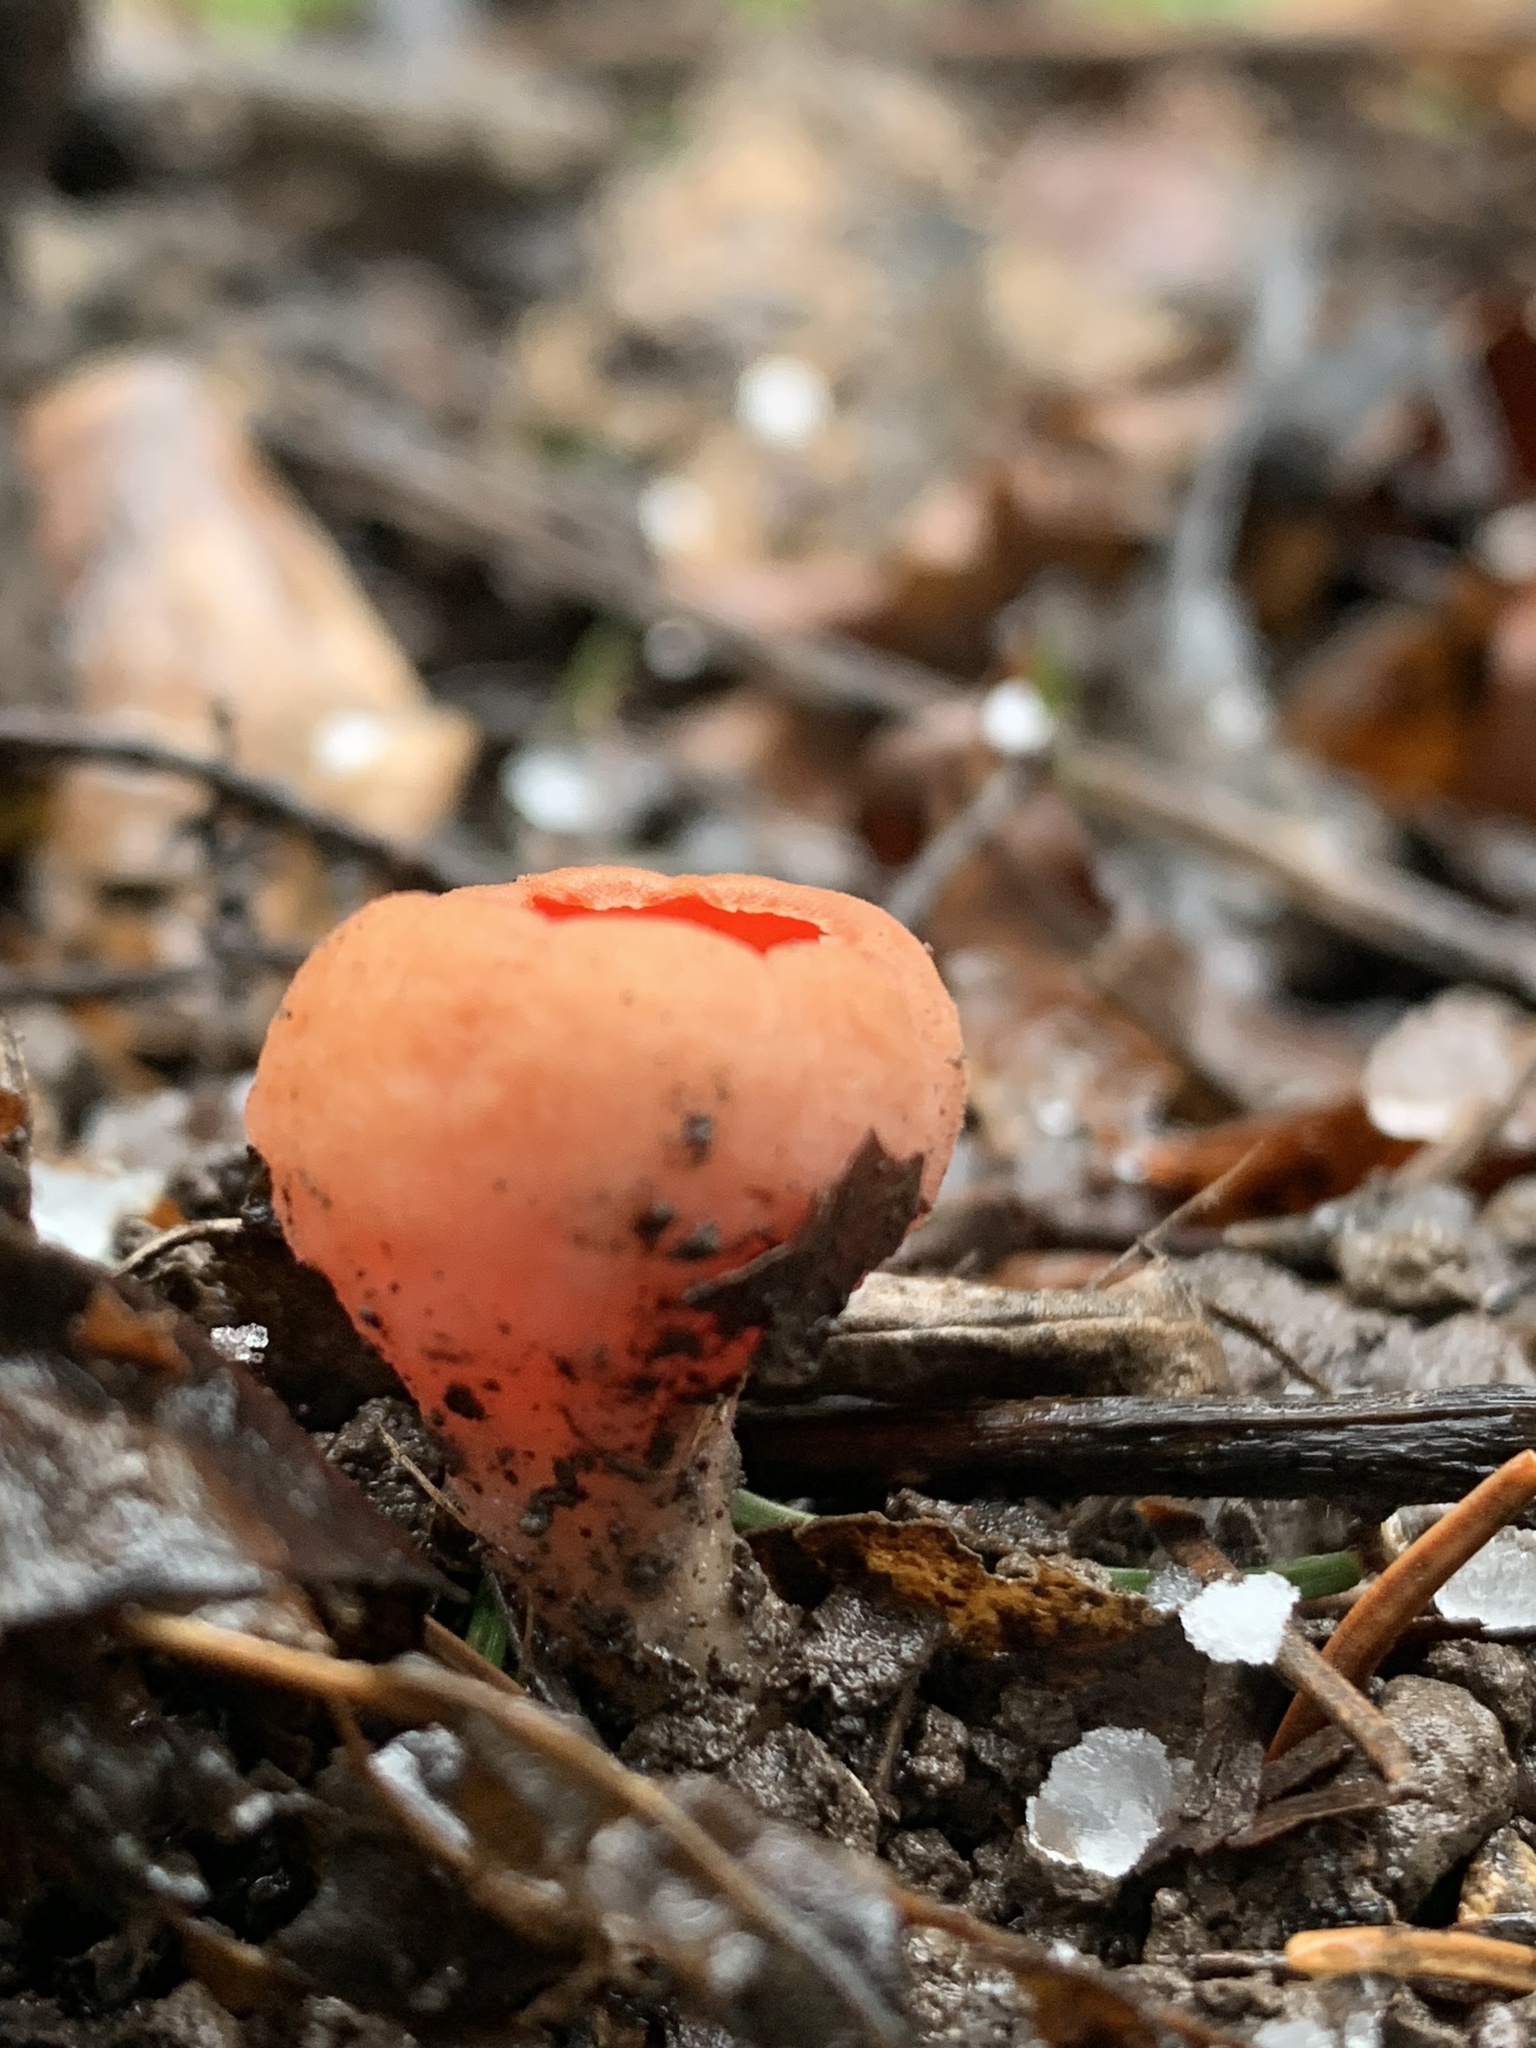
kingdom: Fungi
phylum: Ascomycota
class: Pezizomycetes
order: Pezizales
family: Sarcoscyphaceae
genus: Sarcoscypha
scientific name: Sarcoscypha
